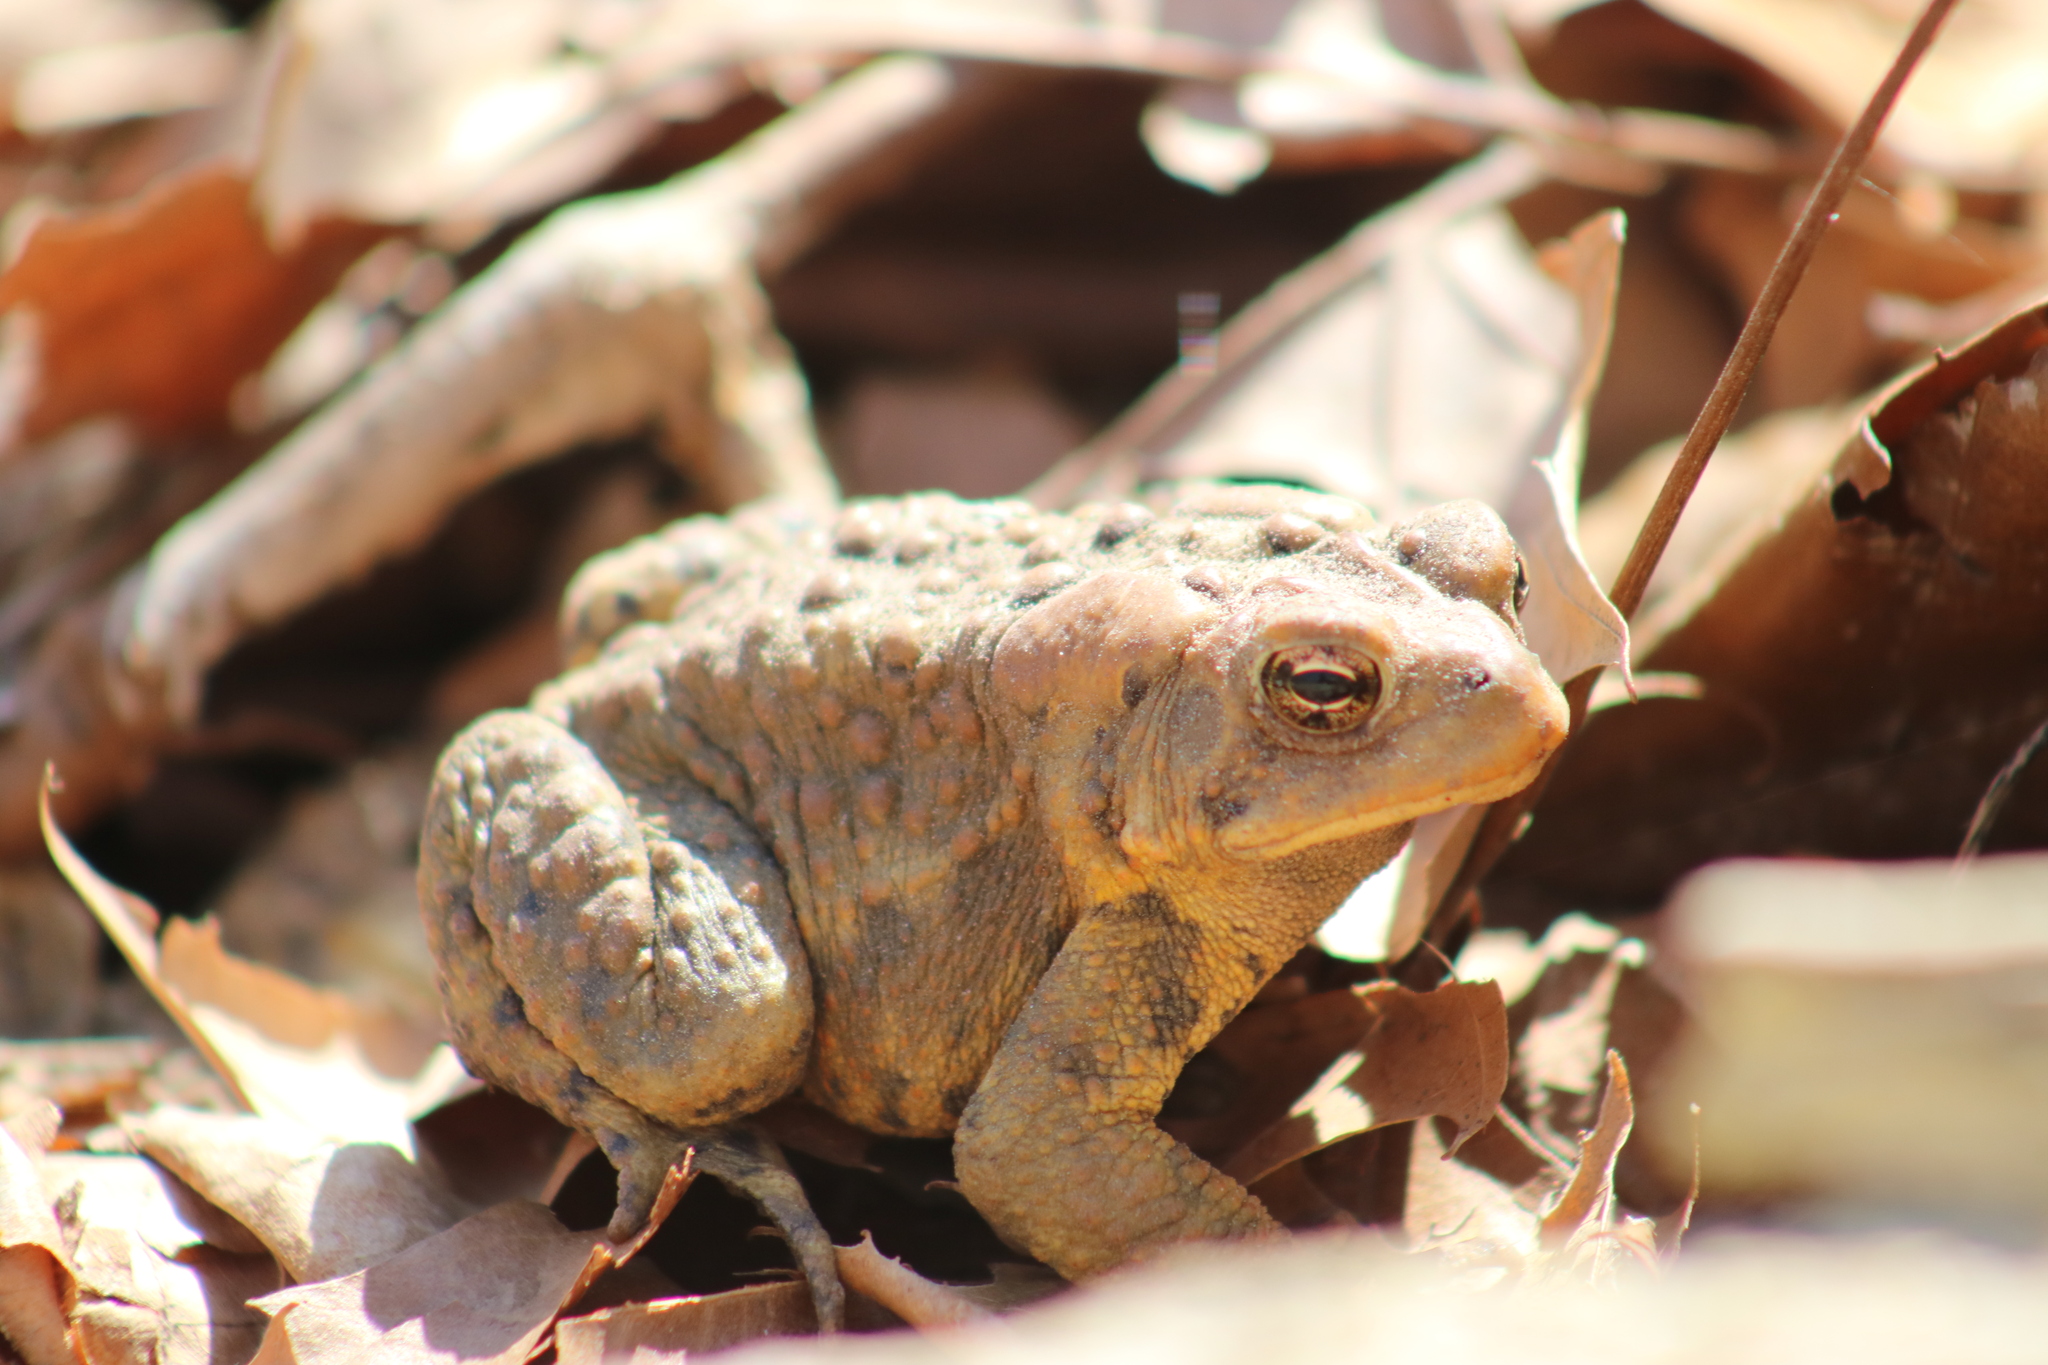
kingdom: Animalia
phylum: Chordata
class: Amphibia
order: Anura
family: Bufonidae
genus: Anaxyrus
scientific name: Anaxyrus americanus
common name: American toad
